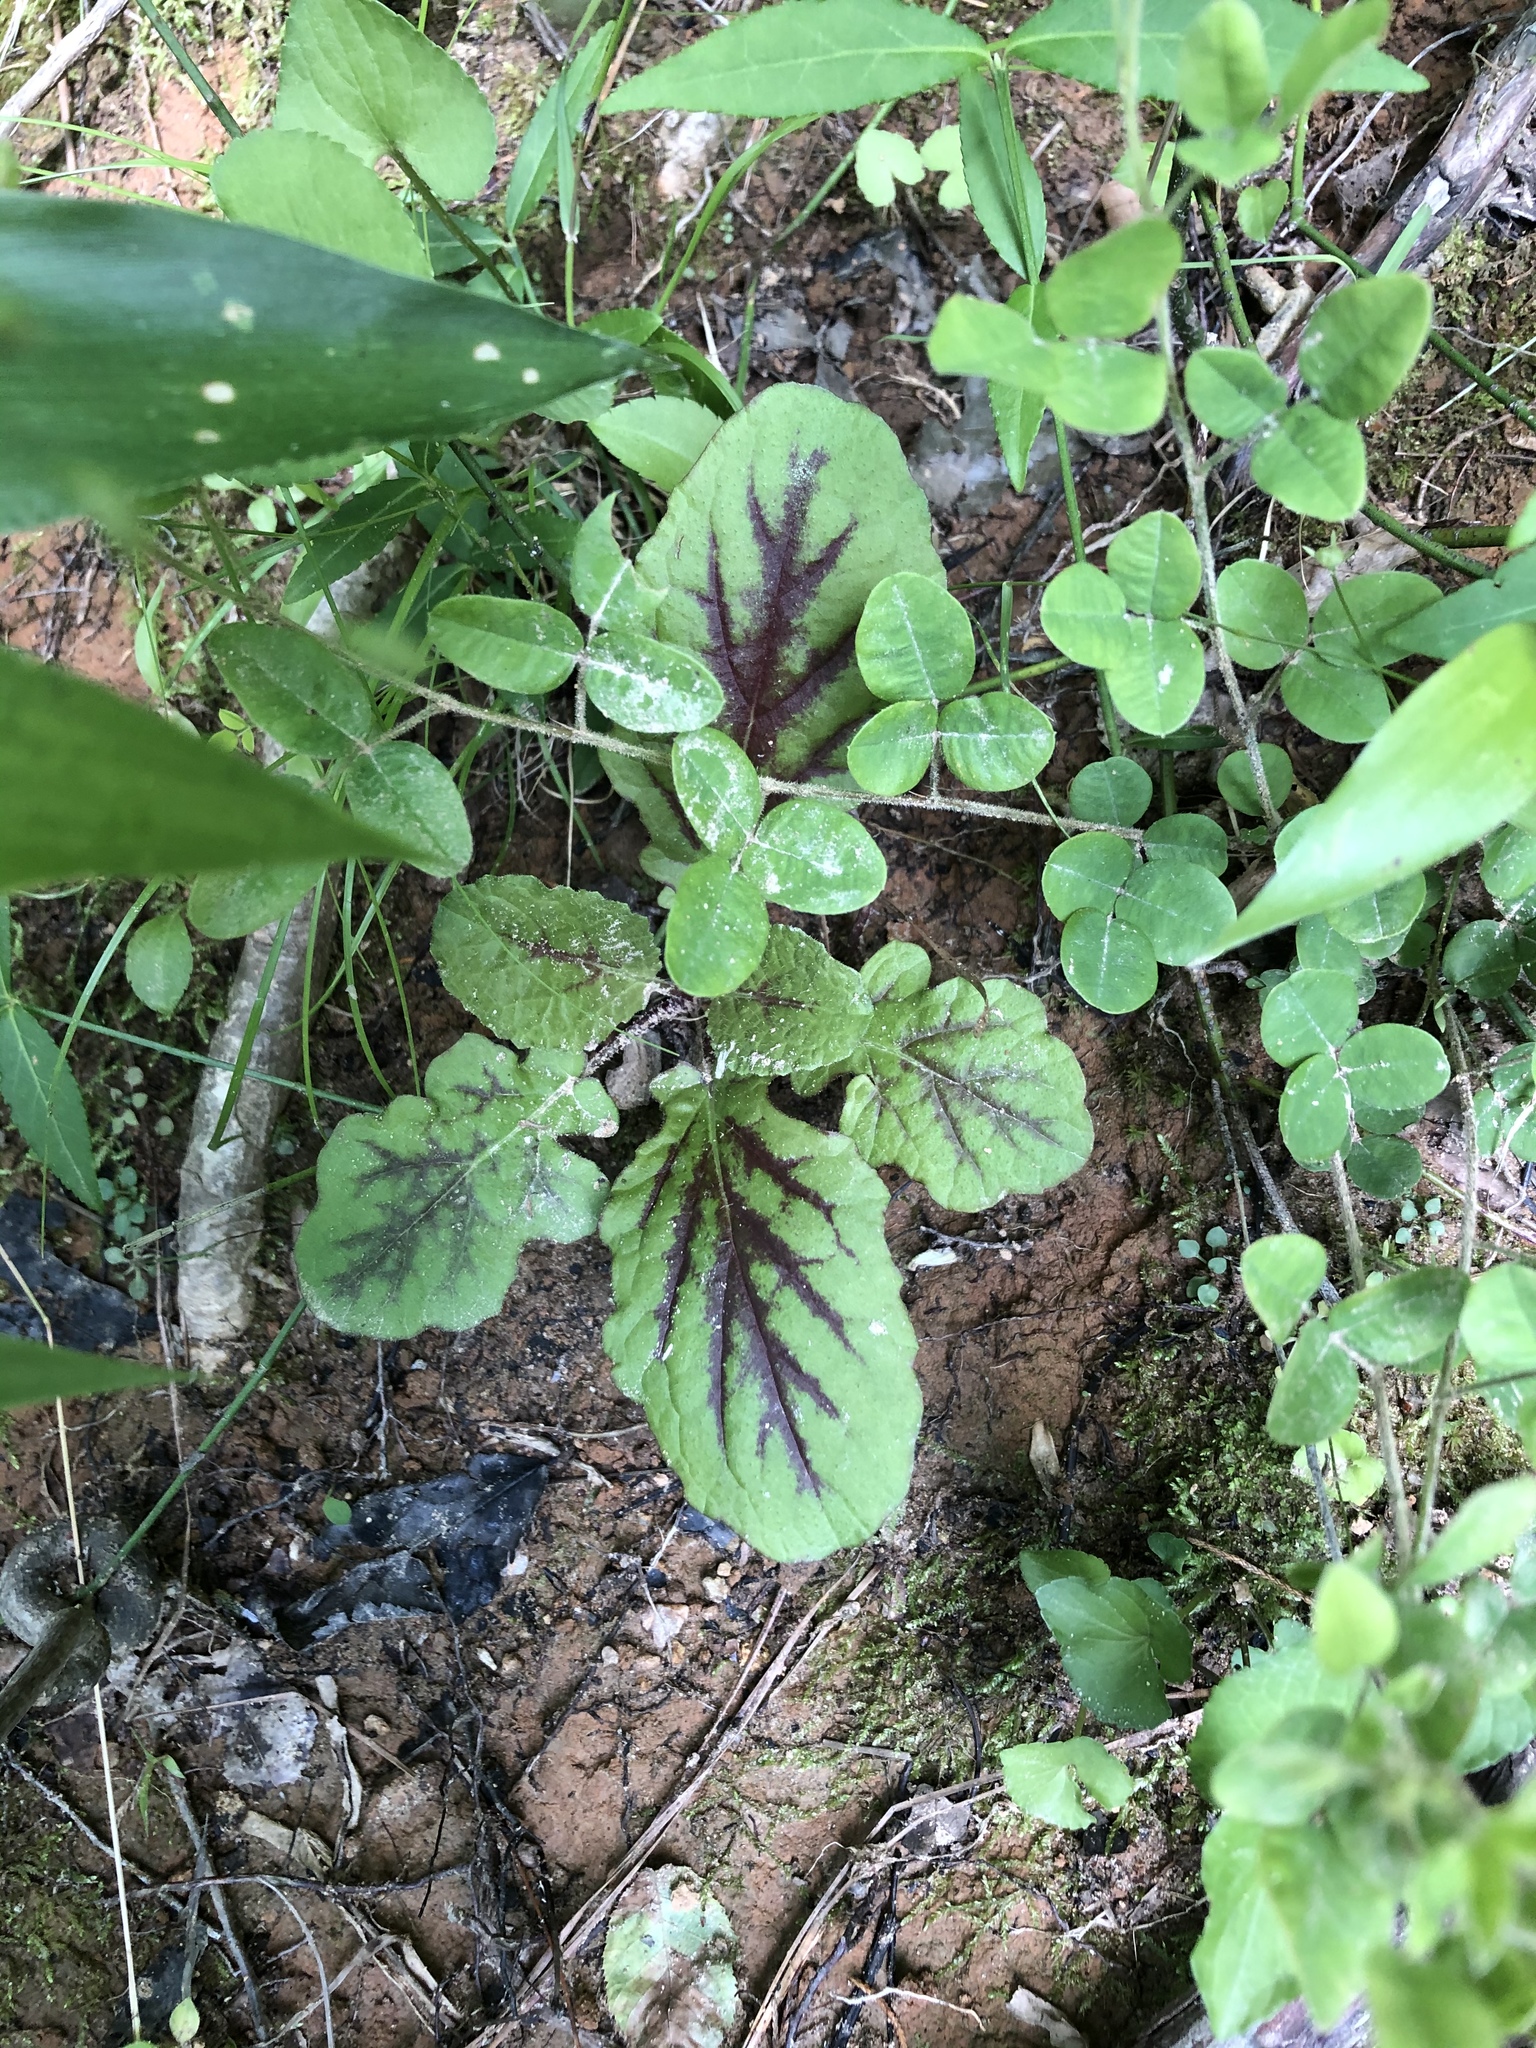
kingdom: Plantae
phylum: Tracheophyta
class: Magnoliopsida
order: Lamiales
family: Lamiaceae
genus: Salvia
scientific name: Salvia lyrata
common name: Cancerweed
